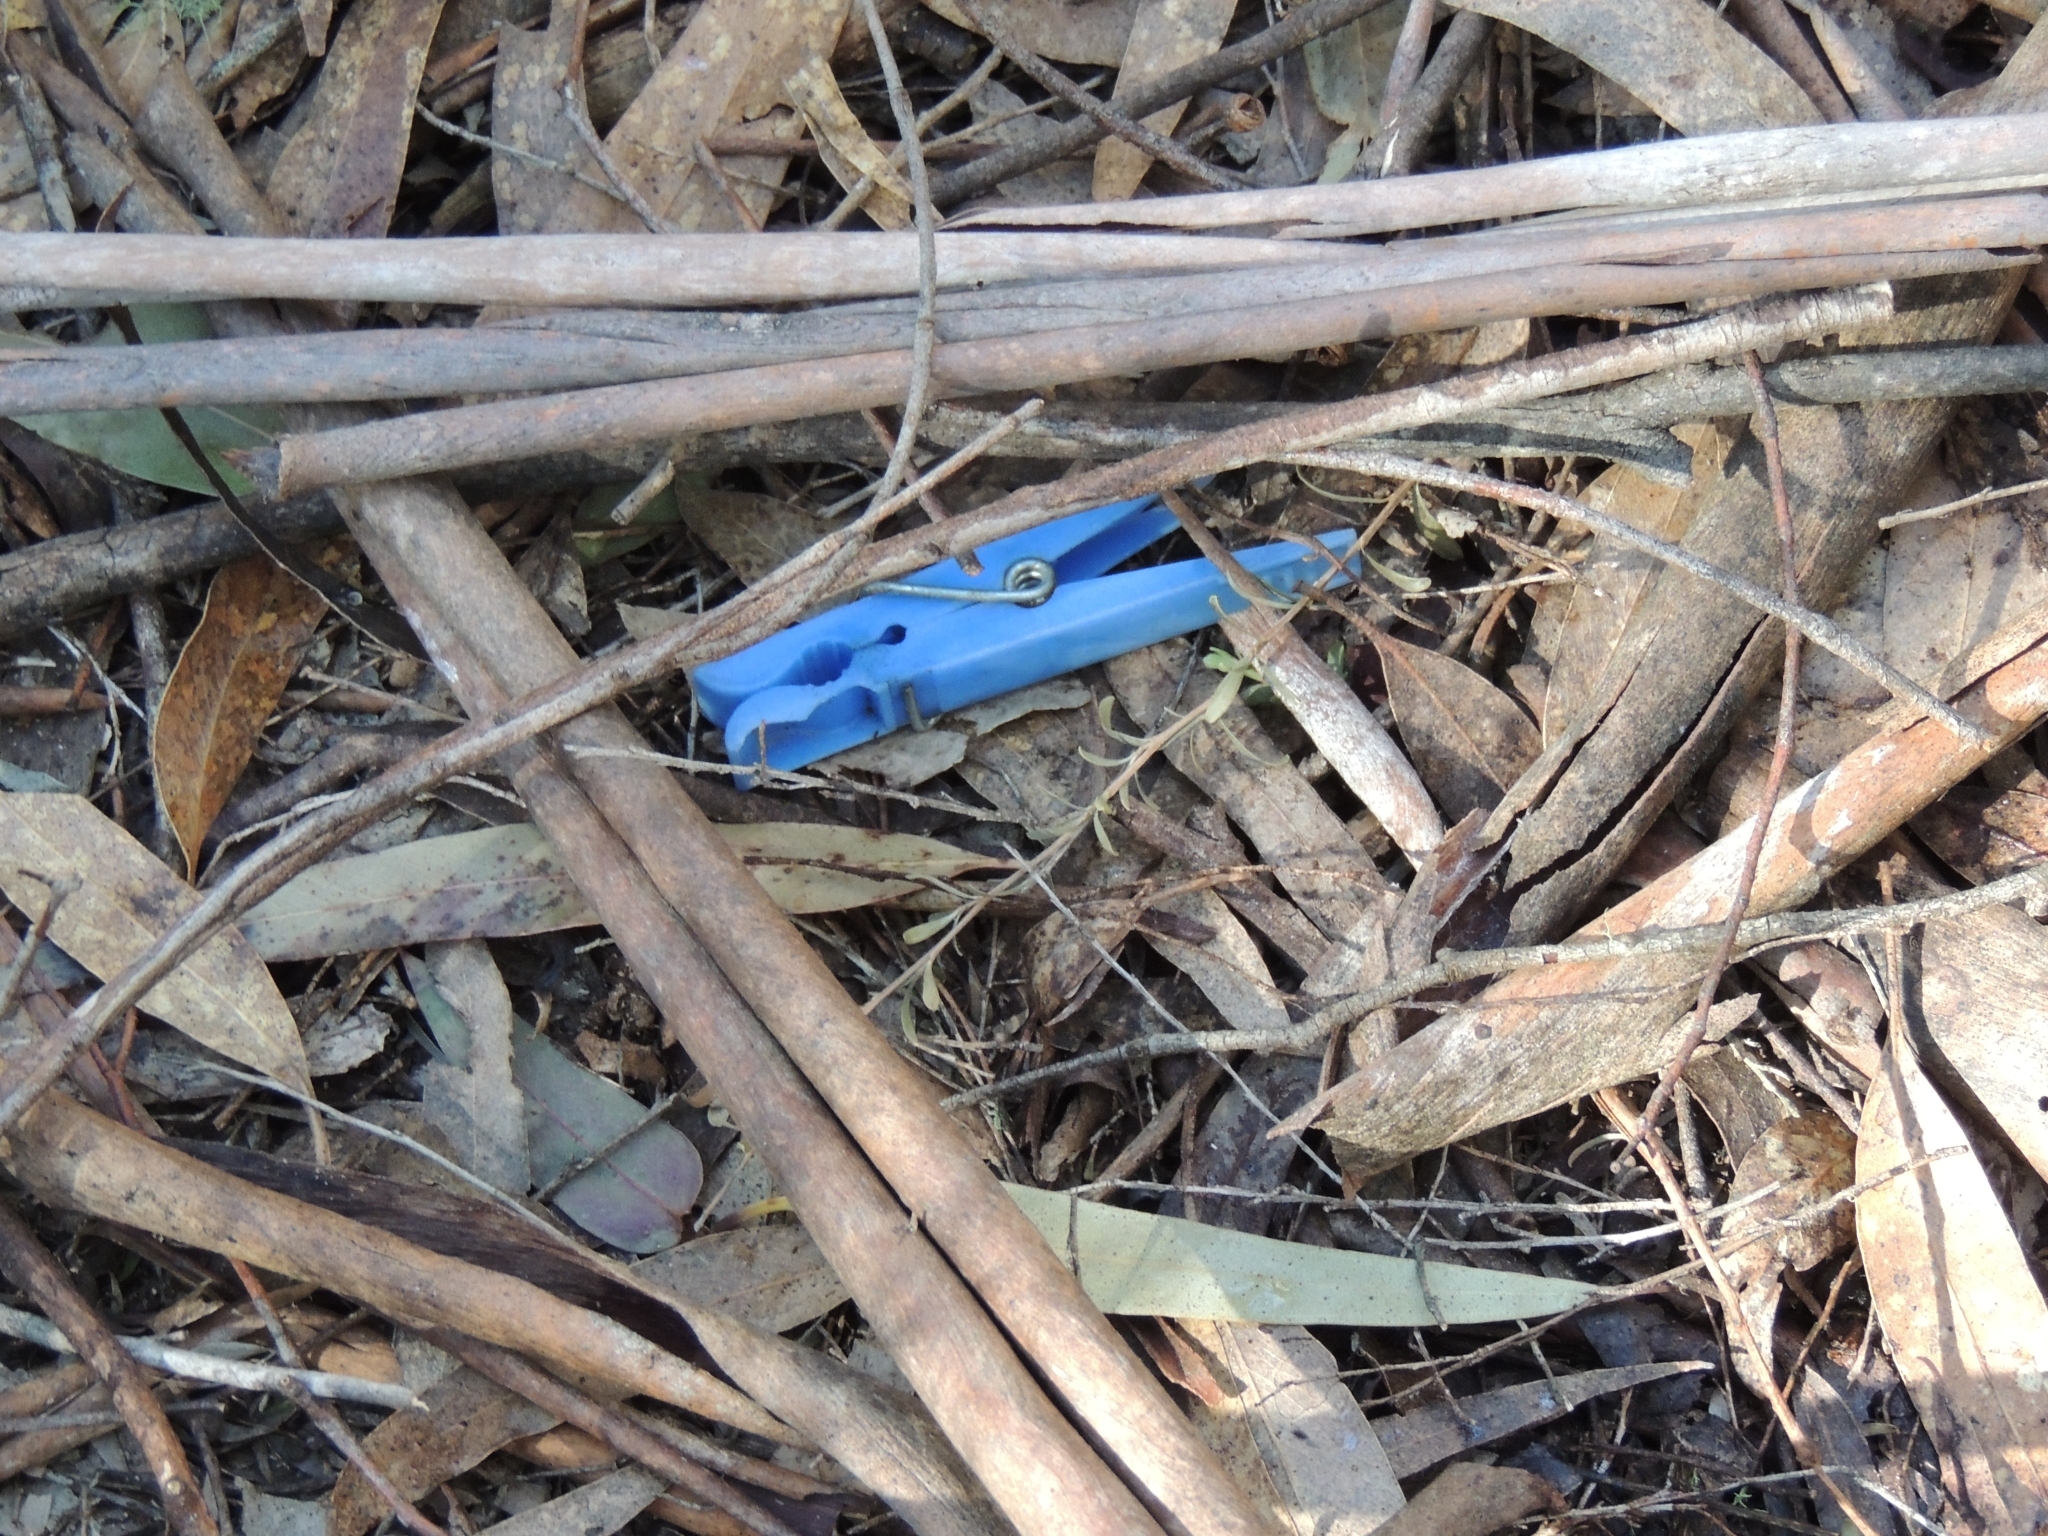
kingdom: Animalia
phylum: Chordata
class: Aves
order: Passeriformes
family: Ptilonorhynchidae
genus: Ptilonorhynchus
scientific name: Ptilonorhynchus violaceus
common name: Satin bowerbird
